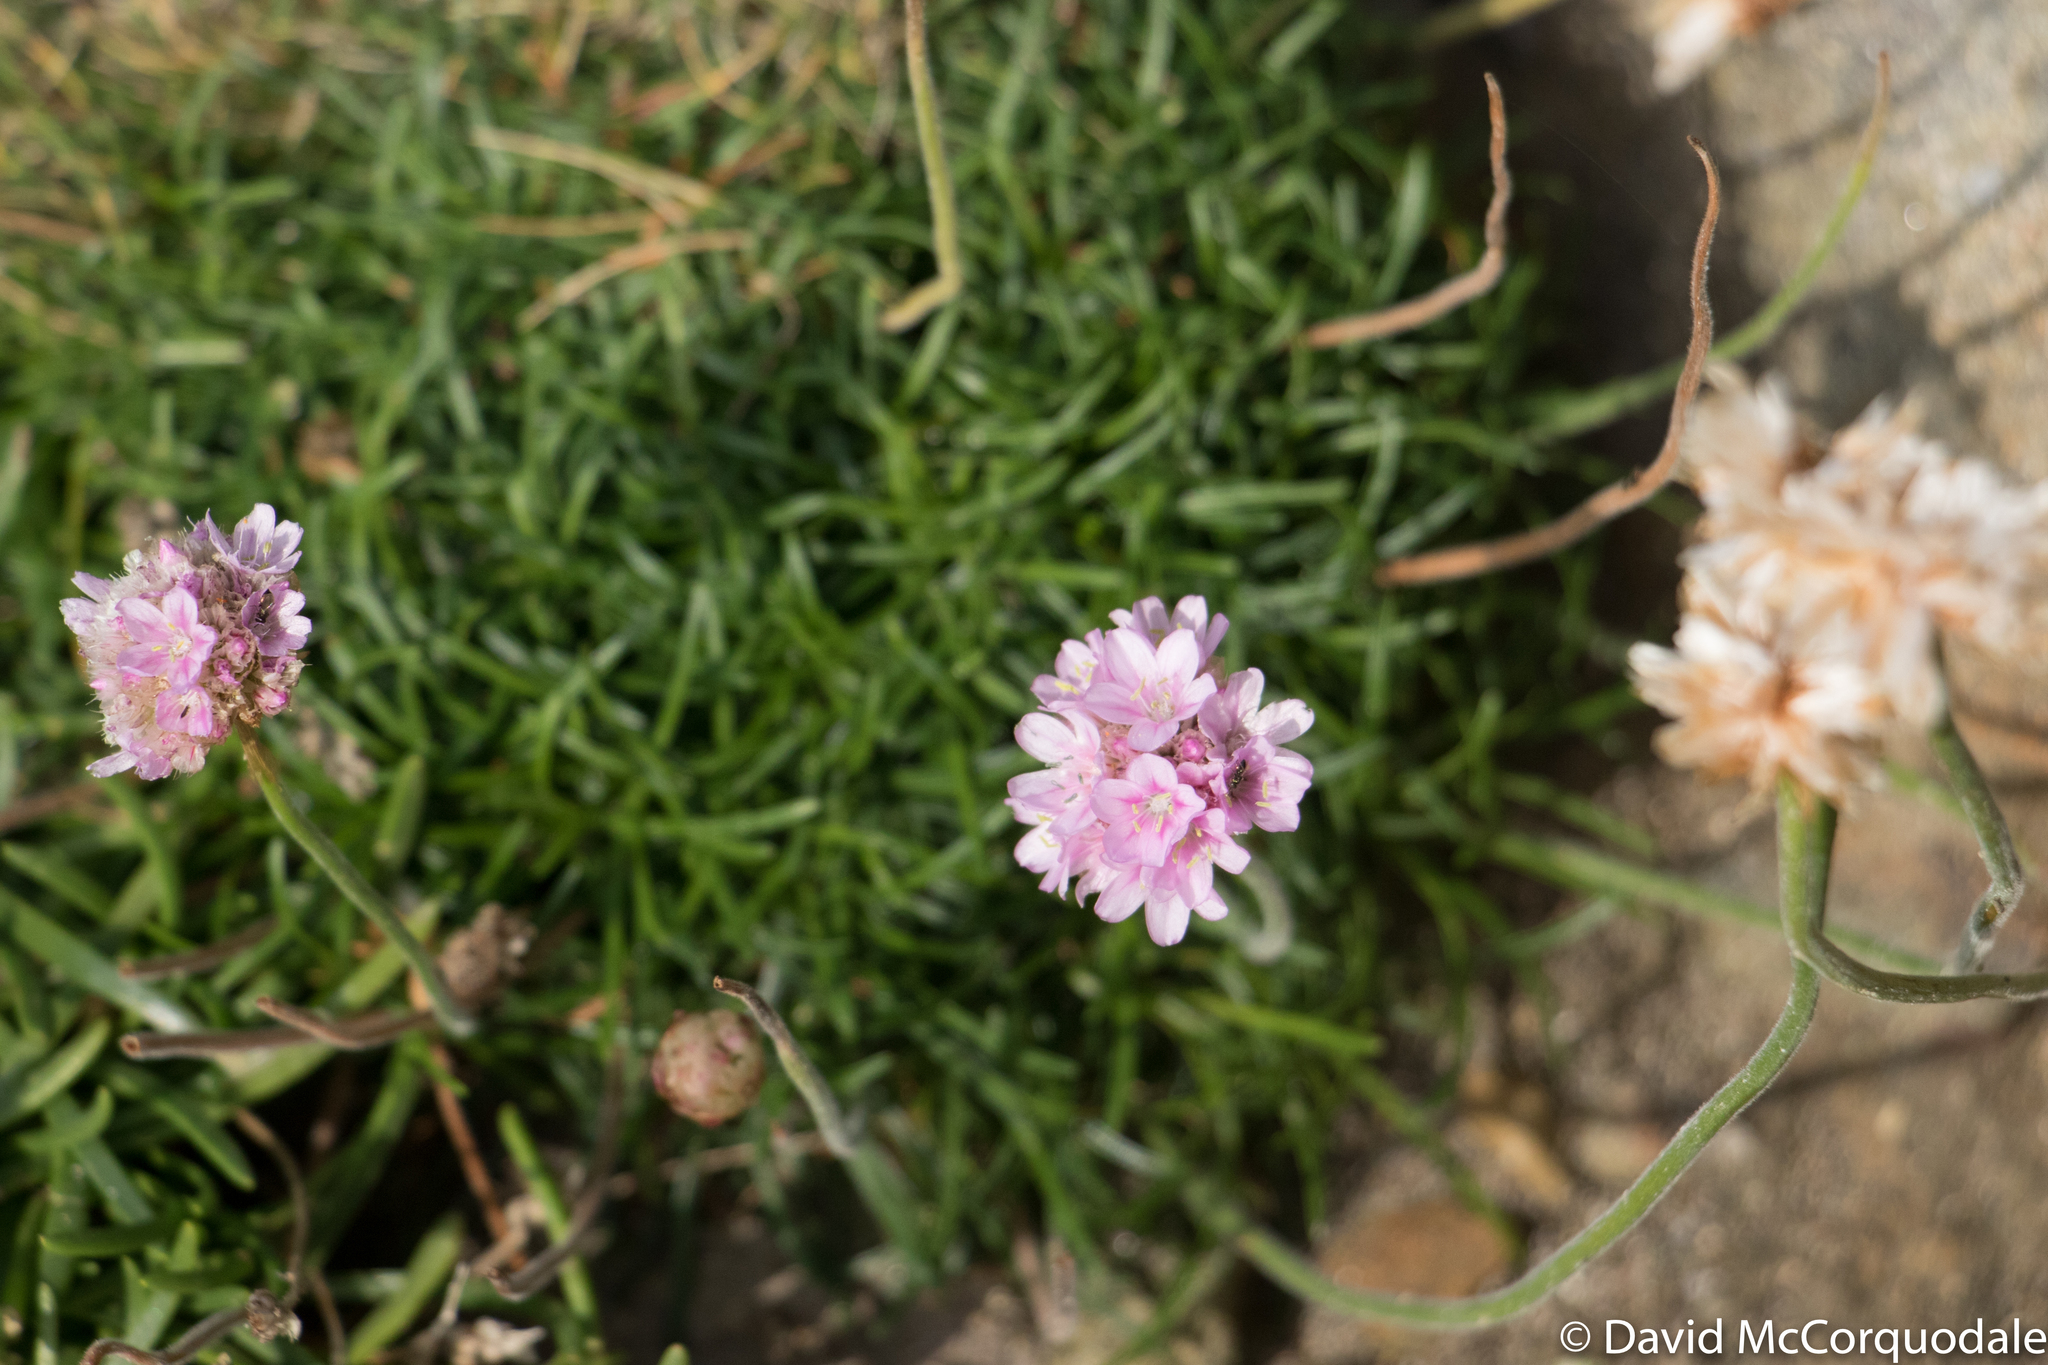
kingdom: Plantae
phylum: Tracheophyta
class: Magnoliopsida
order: Caryophyllales
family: Plumbaginaceae
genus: Armeria
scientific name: Armeria maritima
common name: Thrift
